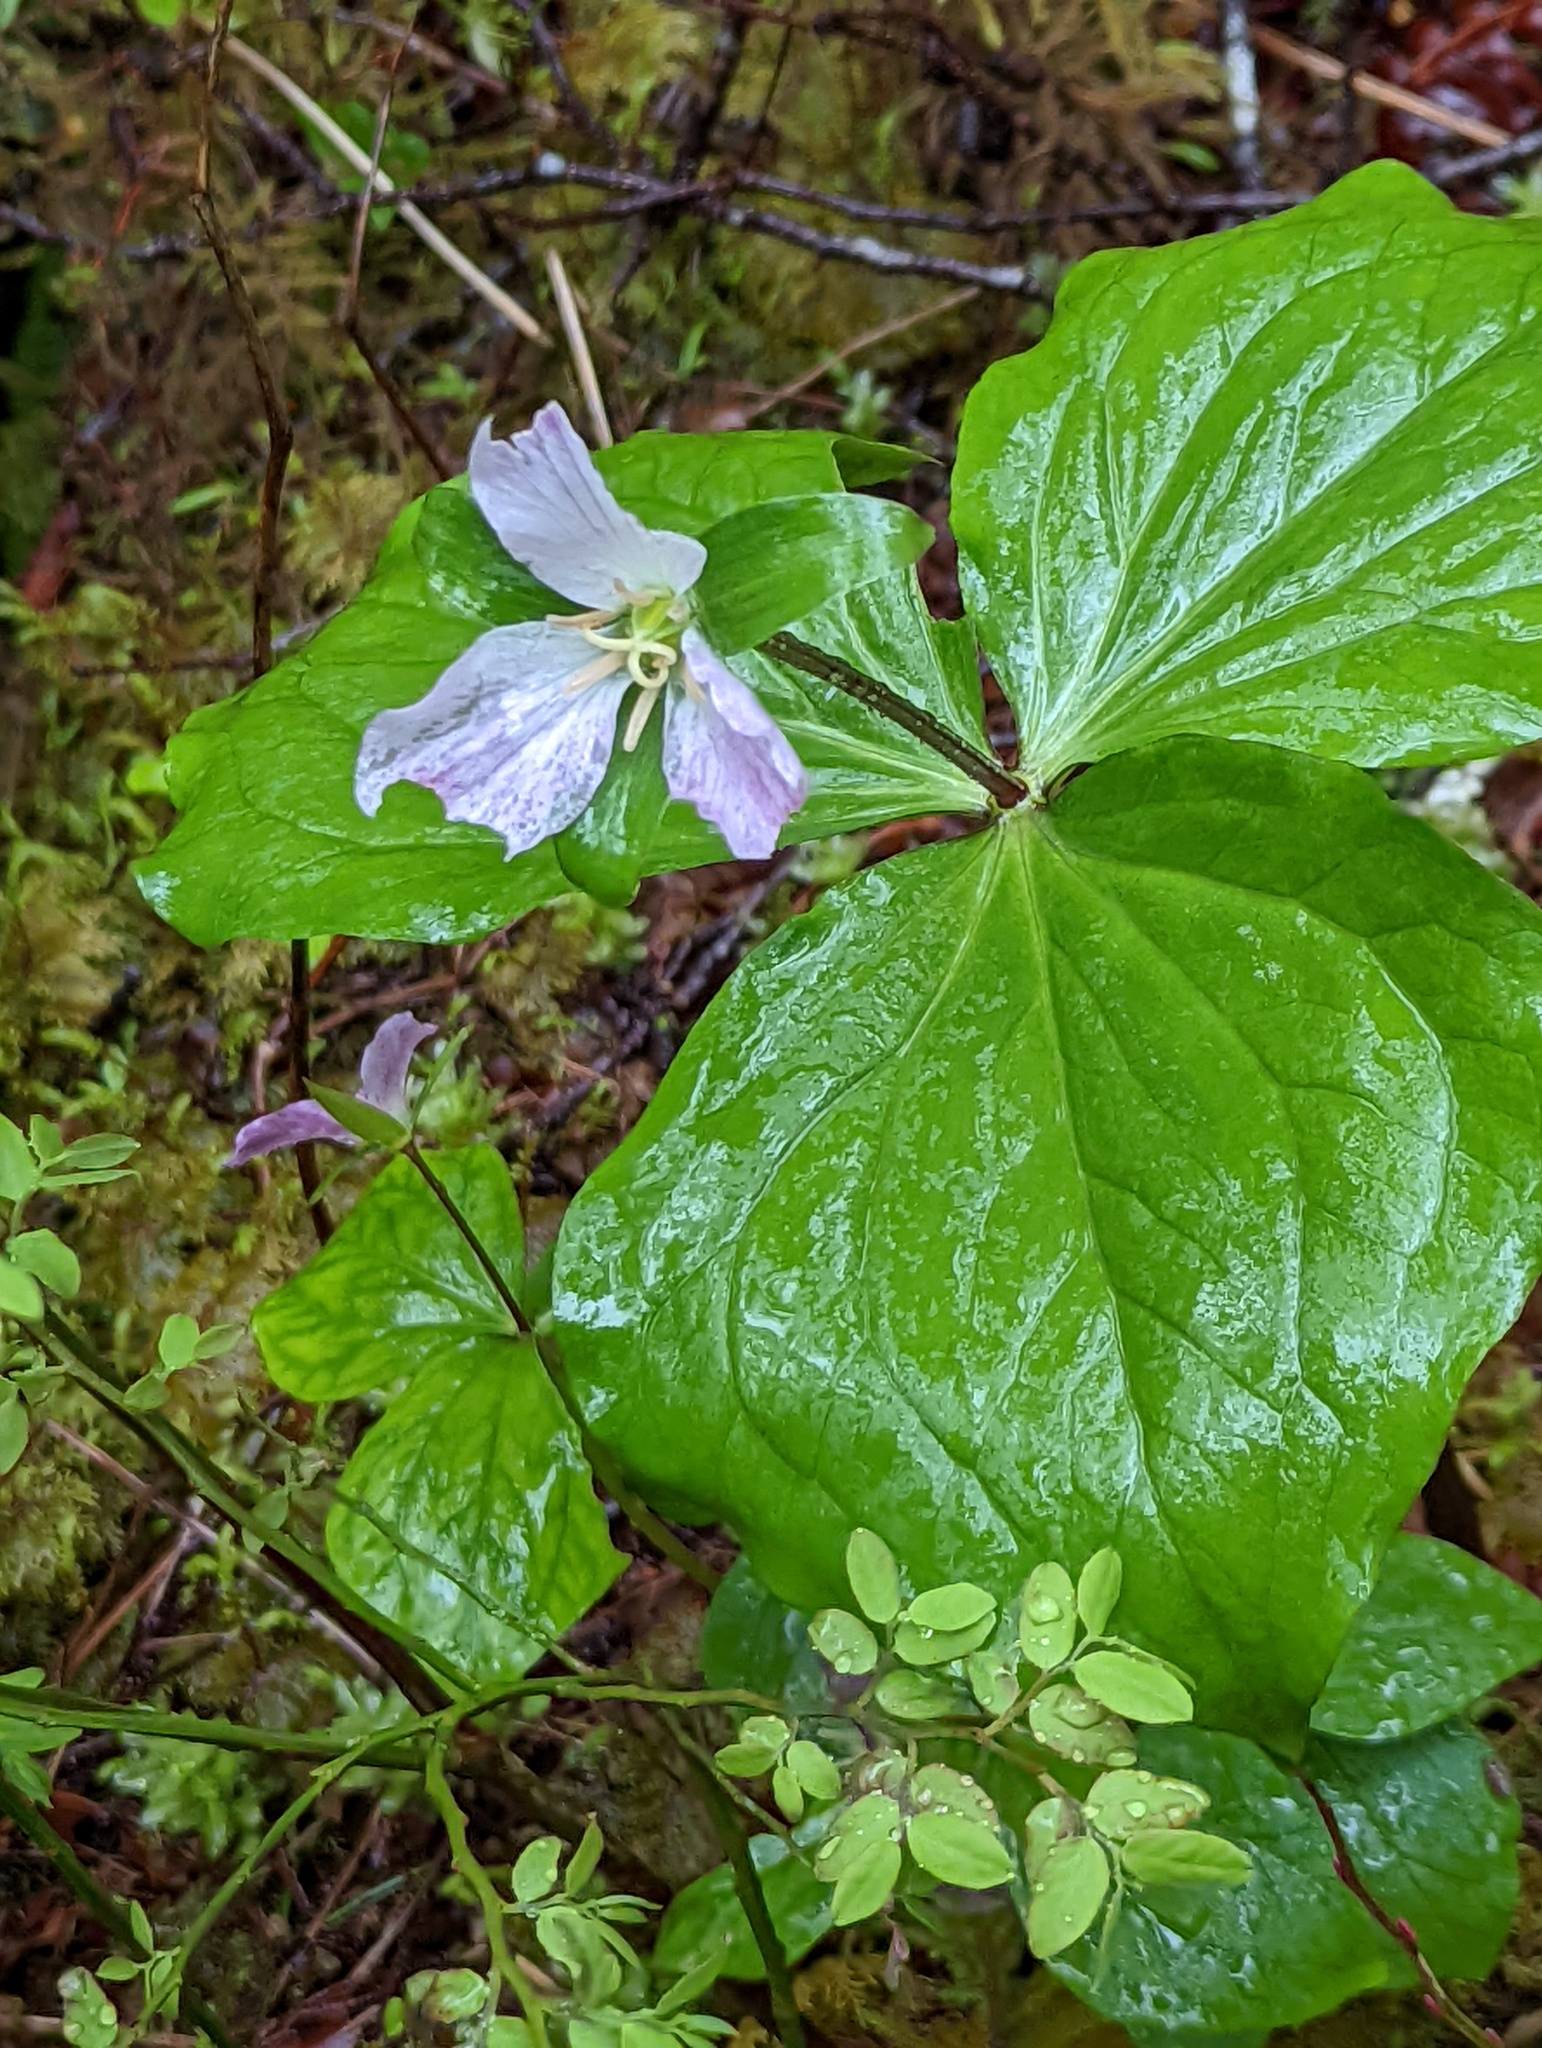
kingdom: Plantae
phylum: Tracheophyta
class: Liliopsida
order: Liliales
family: Melanthiaceae
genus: Trillium
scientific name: Trillium ovatum
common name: Pacific trillium
